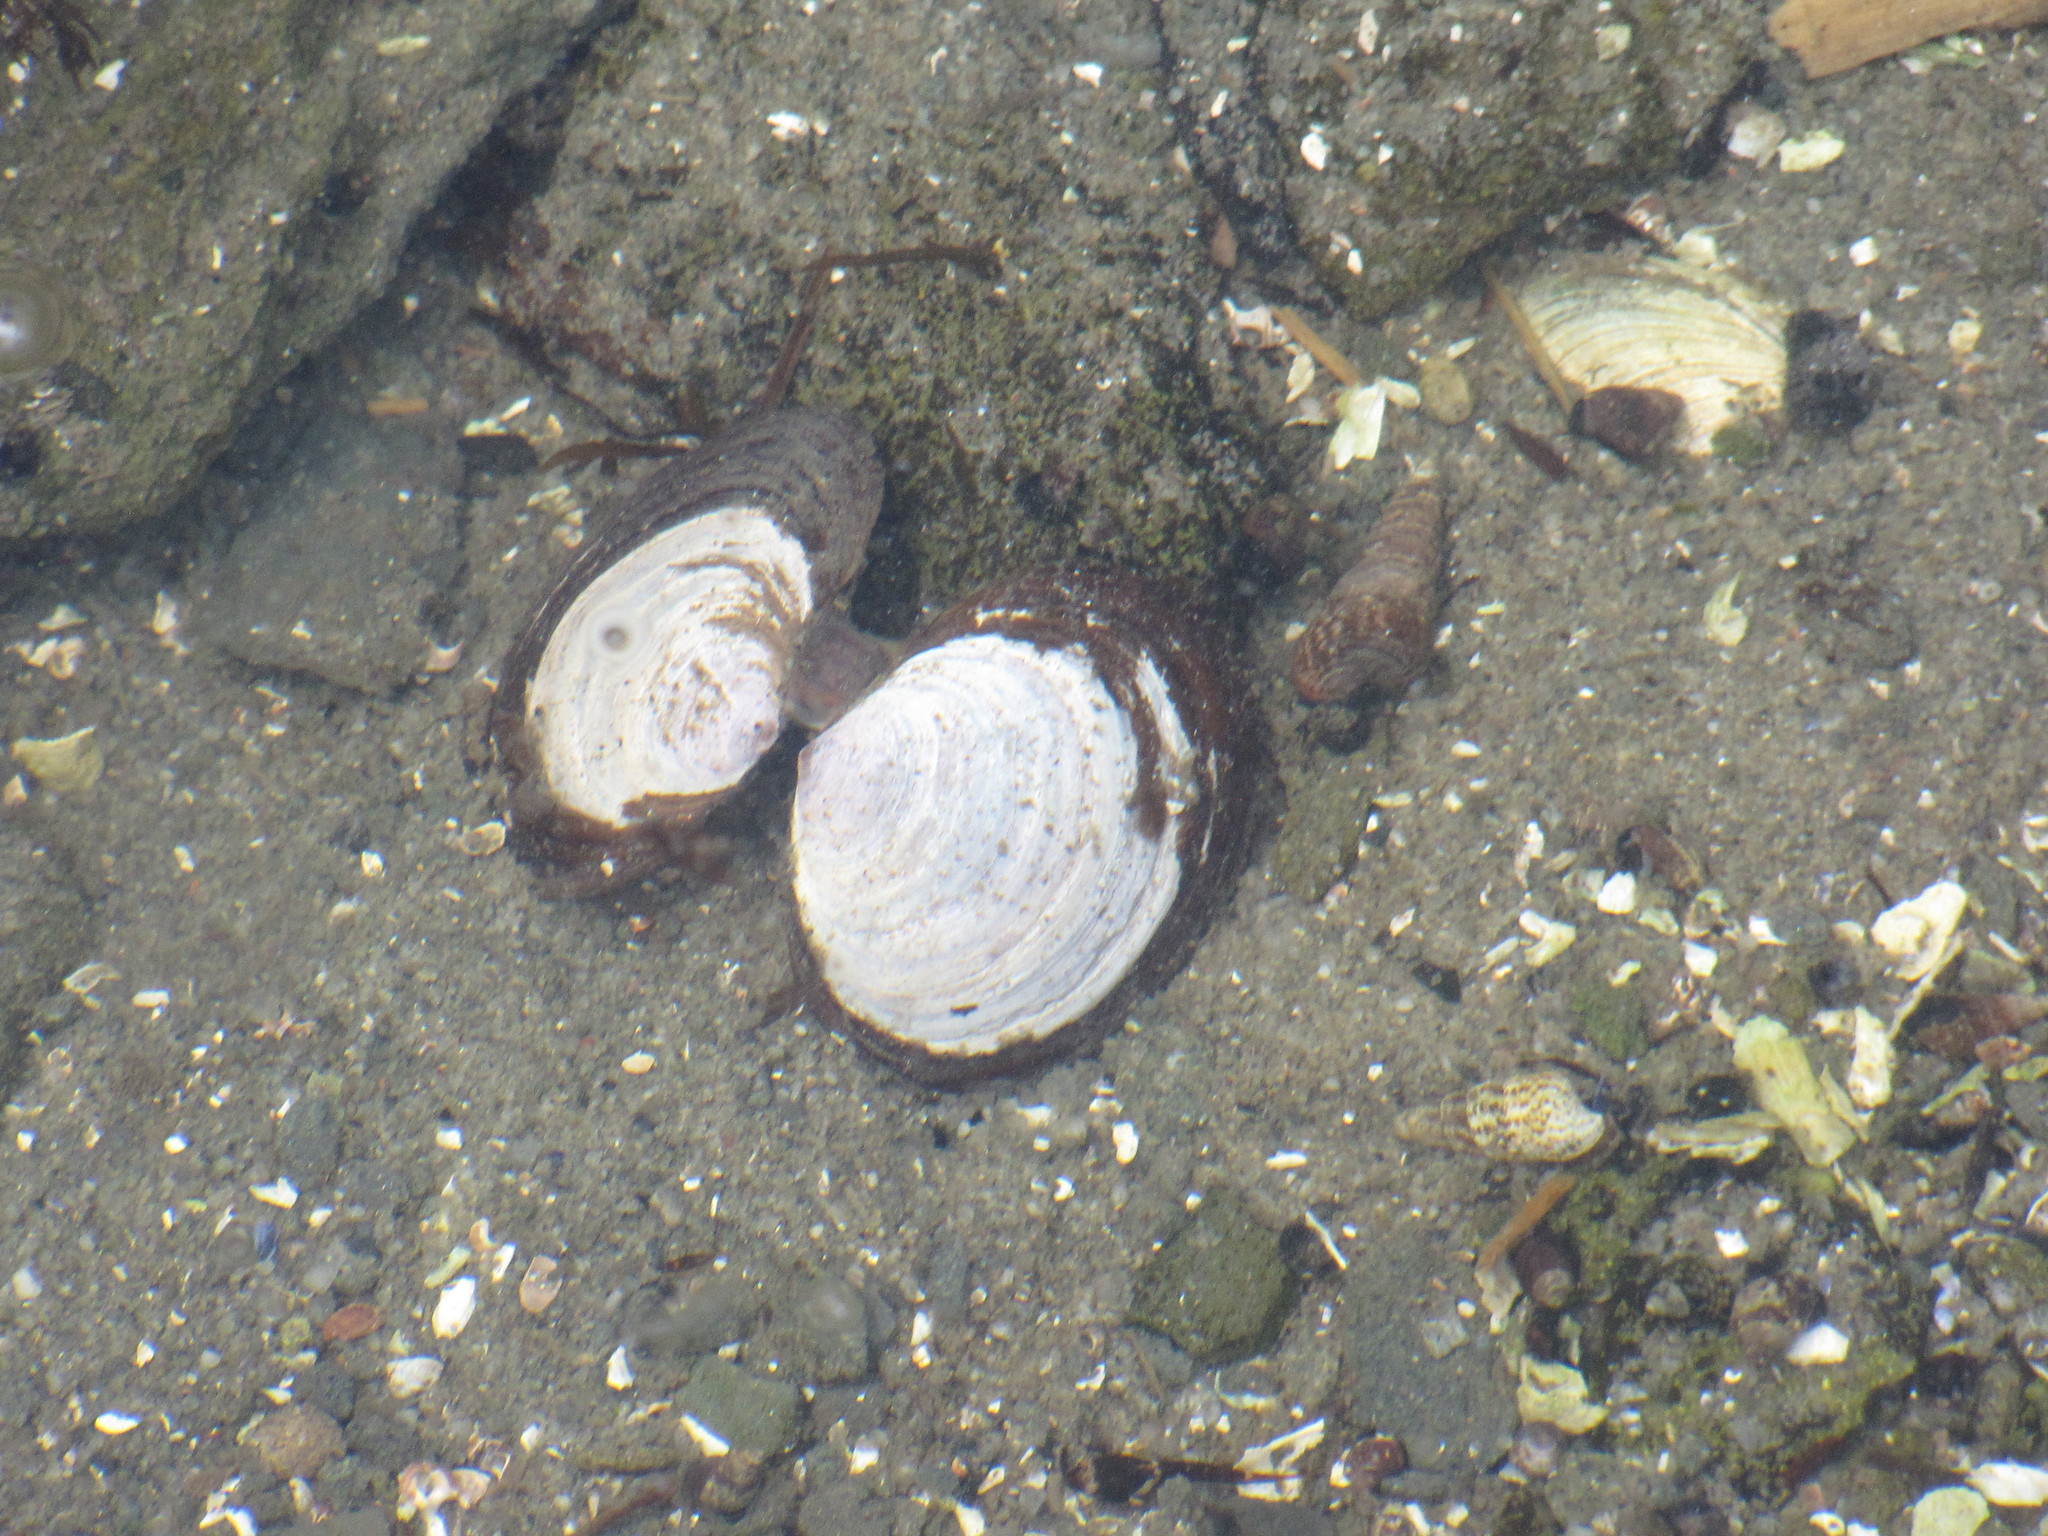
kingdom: Animalia
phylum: Mollusca
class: Bivalvia
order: Cardiida
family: Psammobiidae
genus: Nuttallia
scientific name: Nuttallia obscurata
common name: Purple mahogany-clam
